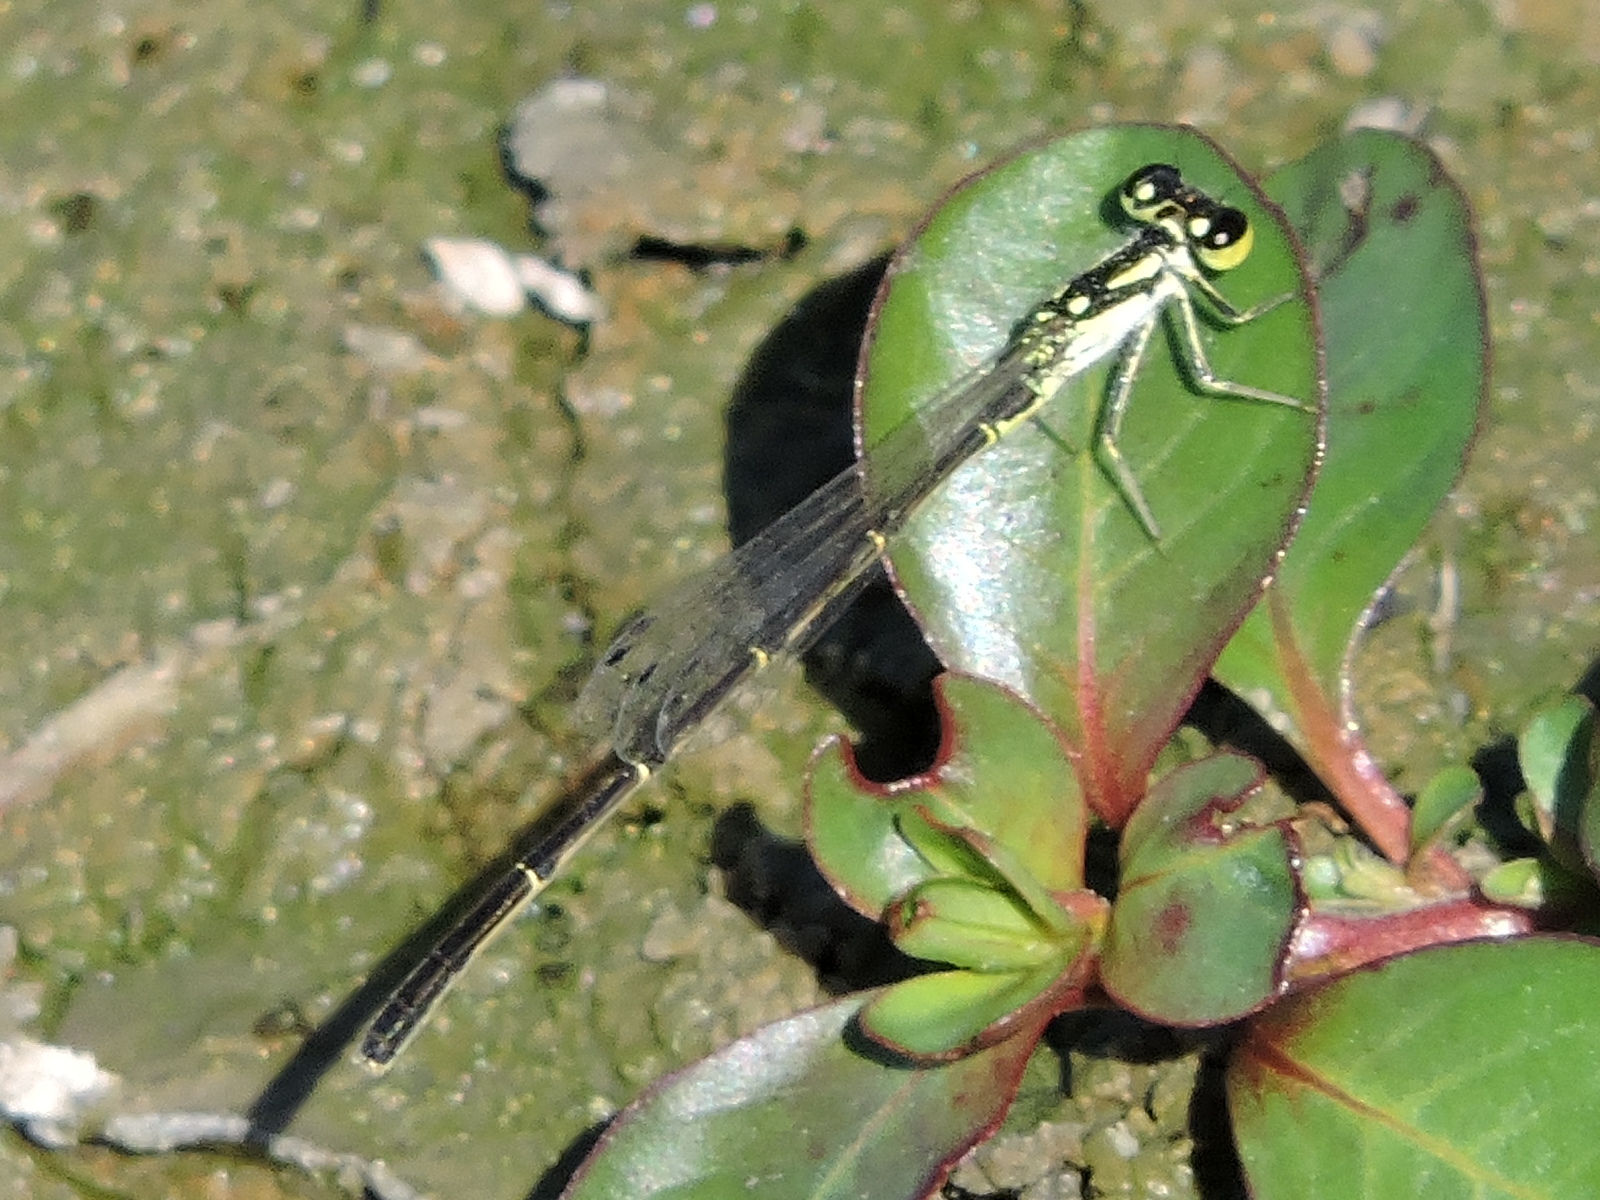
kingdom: Animalia
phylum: Arthropoda
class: Insecta
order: Odonata
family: Coenagrionidae
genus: Ischnura
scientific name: Ischnura posita
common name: Fragile forktail
